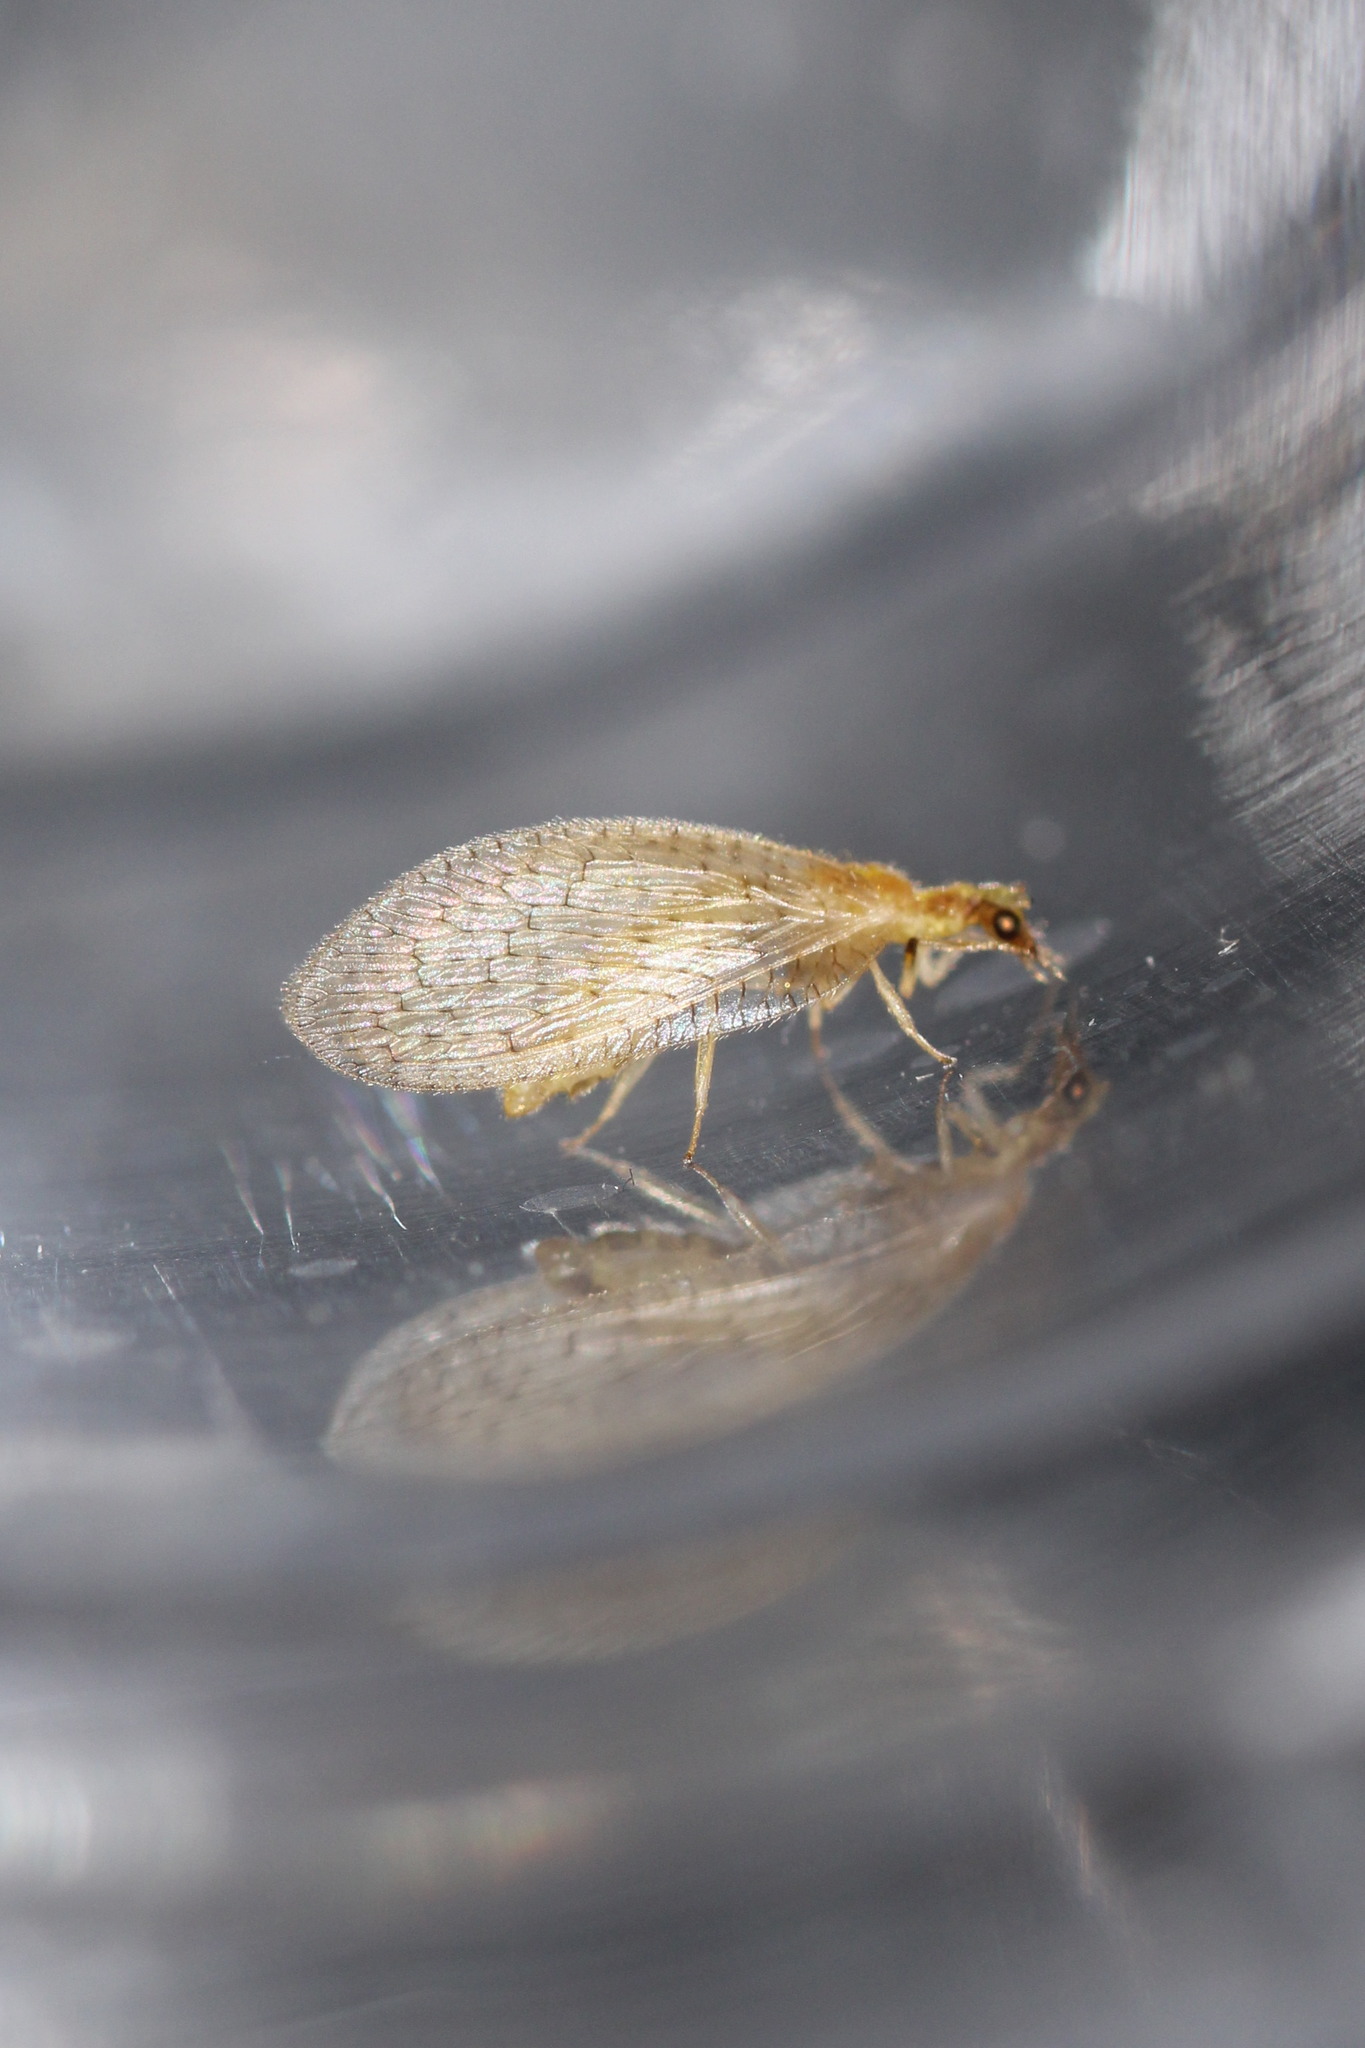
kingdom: Animalia
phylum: Arthropoda
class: Insecta
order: Neuroptera
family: Hemerobiidae
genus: Hemerobius
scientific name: Hemerobius micans
